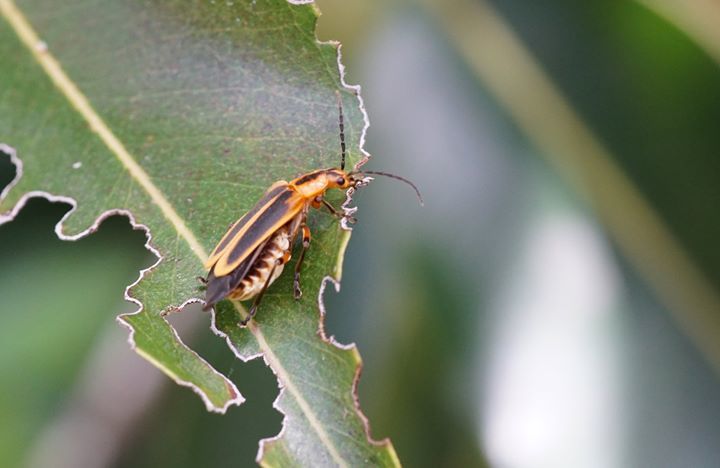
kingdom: Animalia
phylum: Arthropoda
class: Insecta
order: Coleoptera
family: Cantharidae
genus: Chauliognathus
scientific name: Chauliognathus marginatus
